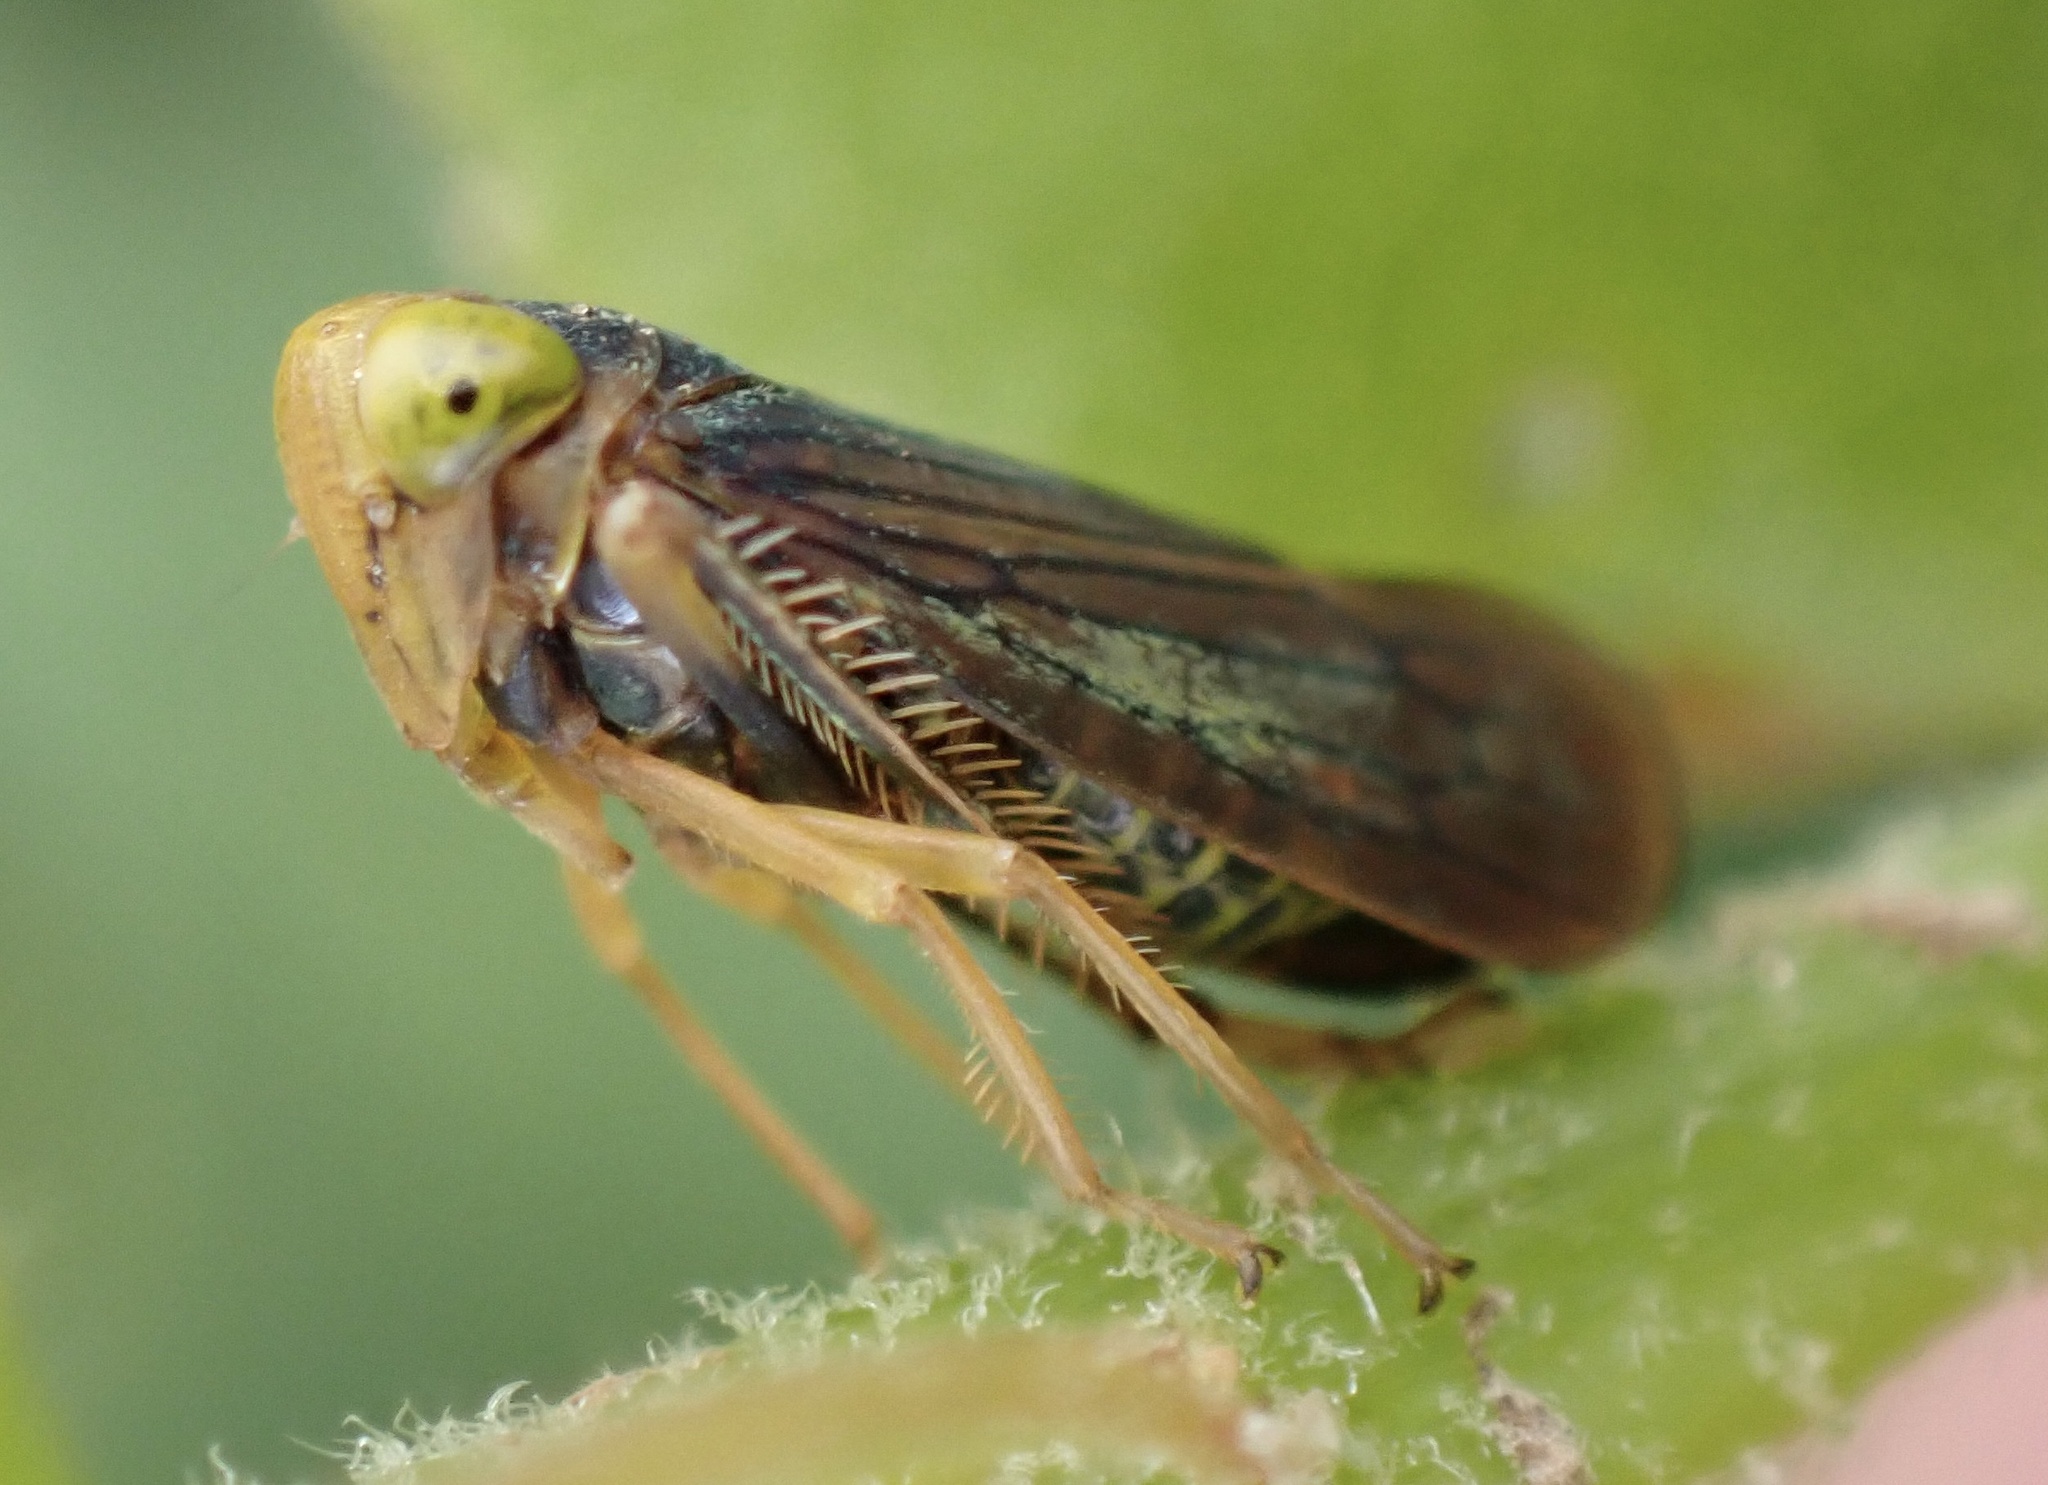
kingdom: Animalia
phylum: Arthropoda
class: Insecta
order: Hemiptera
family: Cicadellidae
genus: Jikradia
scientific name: Jikradia olitoria
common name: Coppery leafhopper
